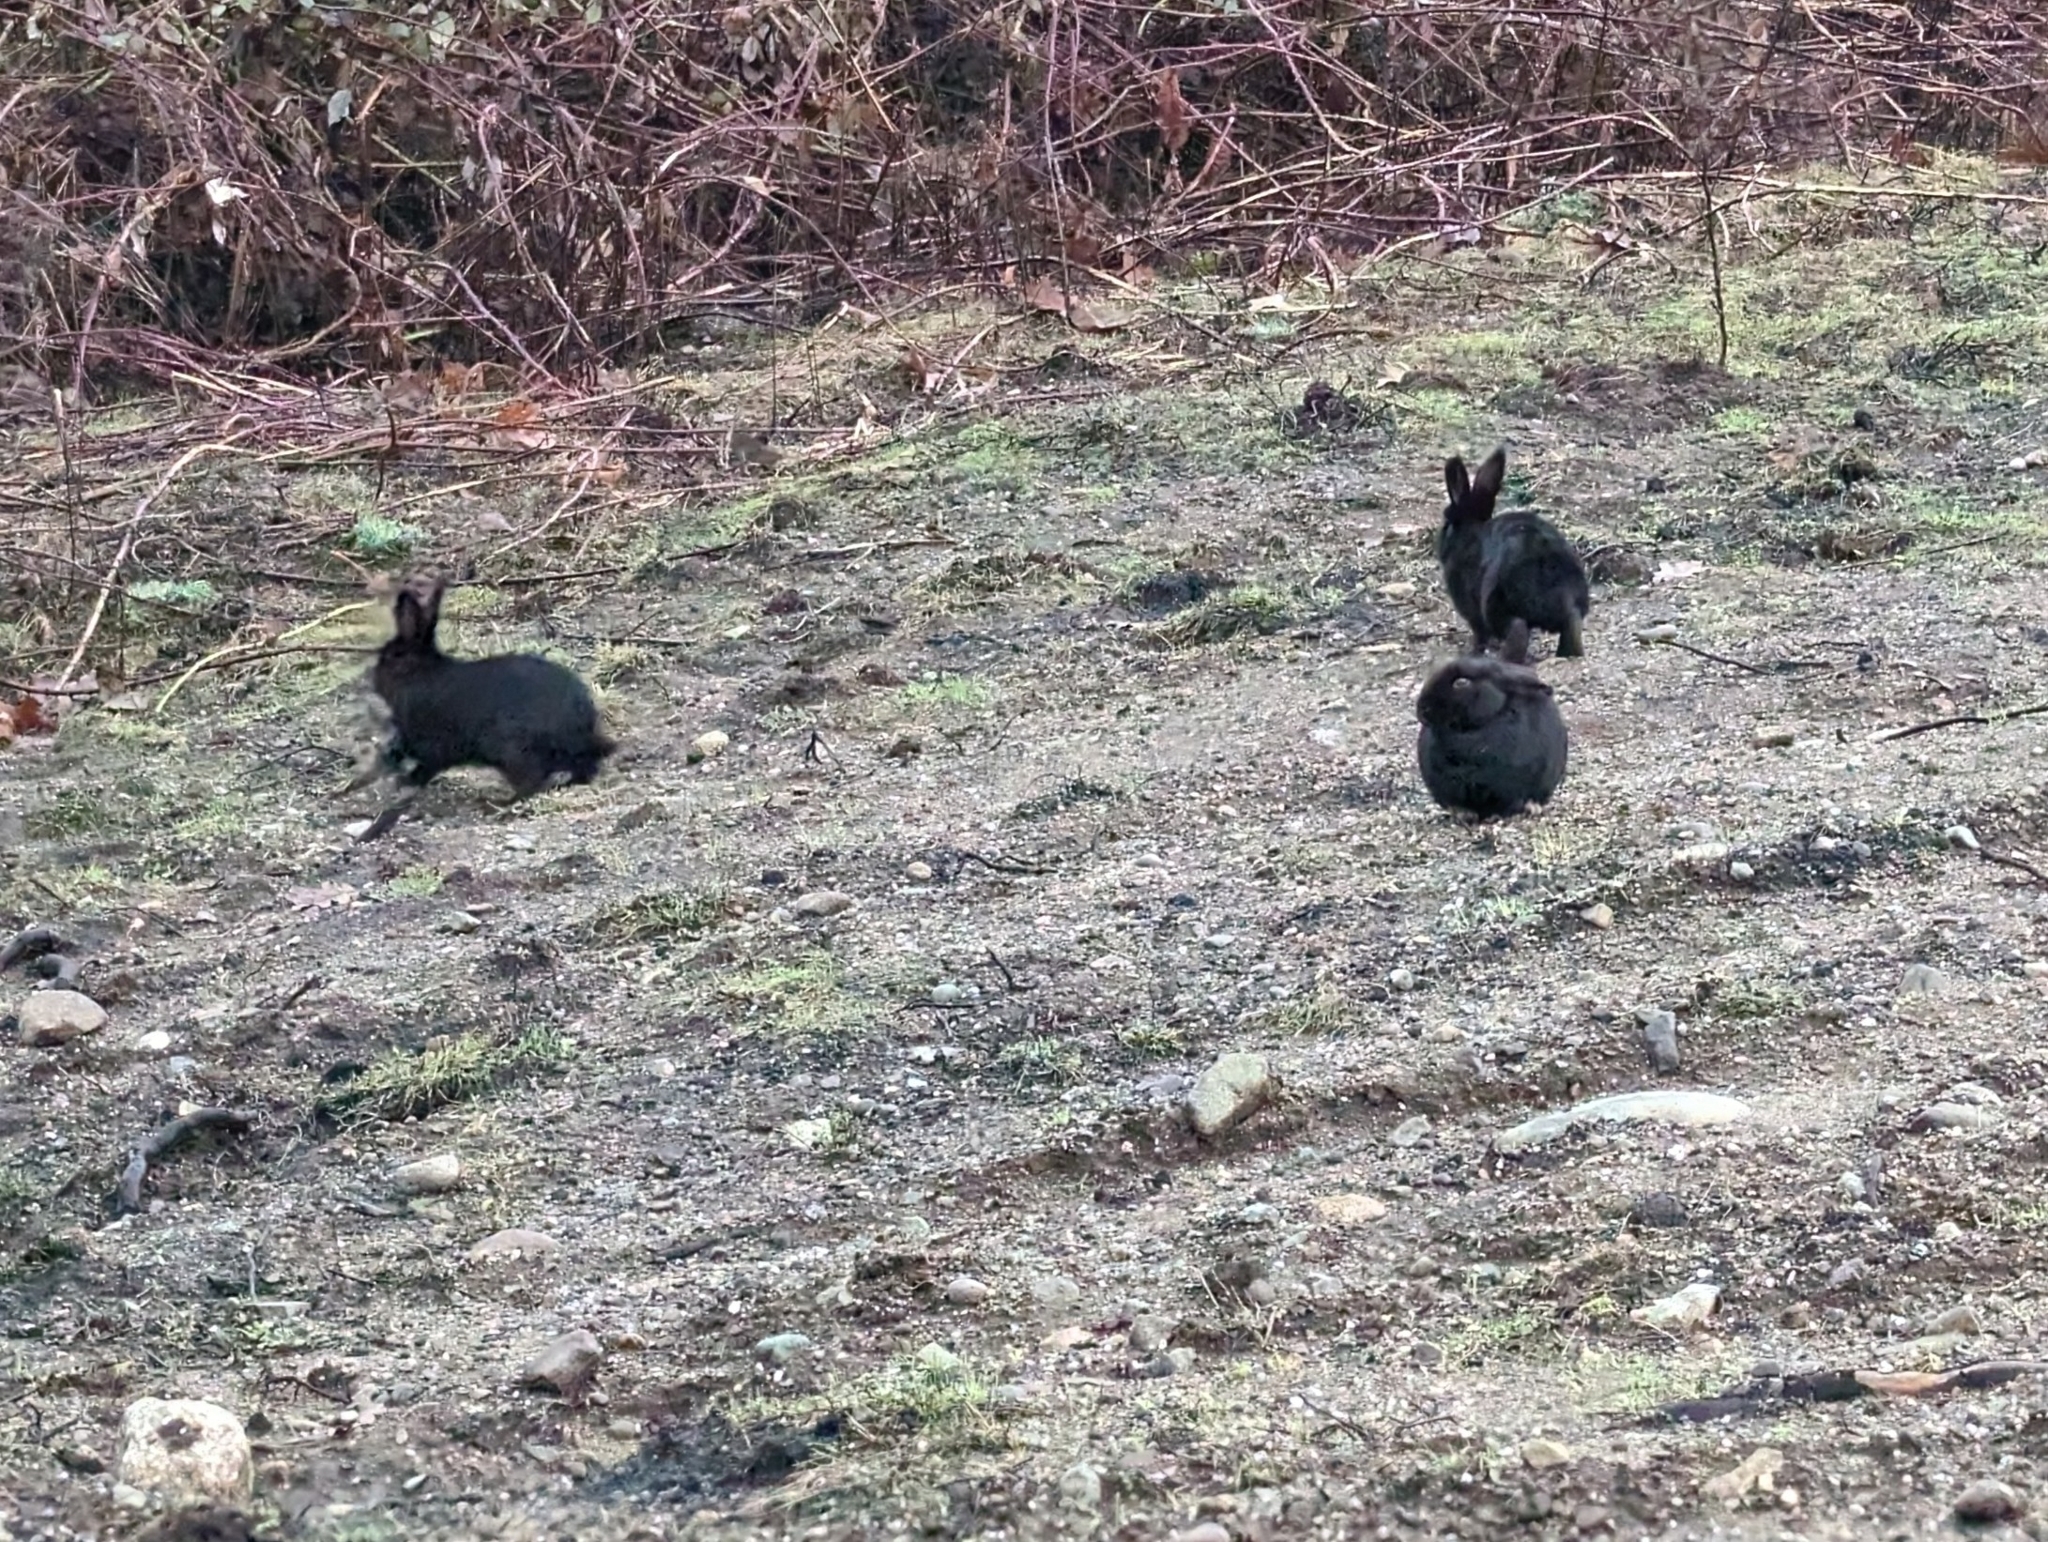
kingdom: Animalia
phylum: Chordata
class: Mammalia
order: Lagomorpha
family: Leporidae
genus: Oryctolagus
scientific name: Oryctolagus cuniculus
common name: European rabbit
